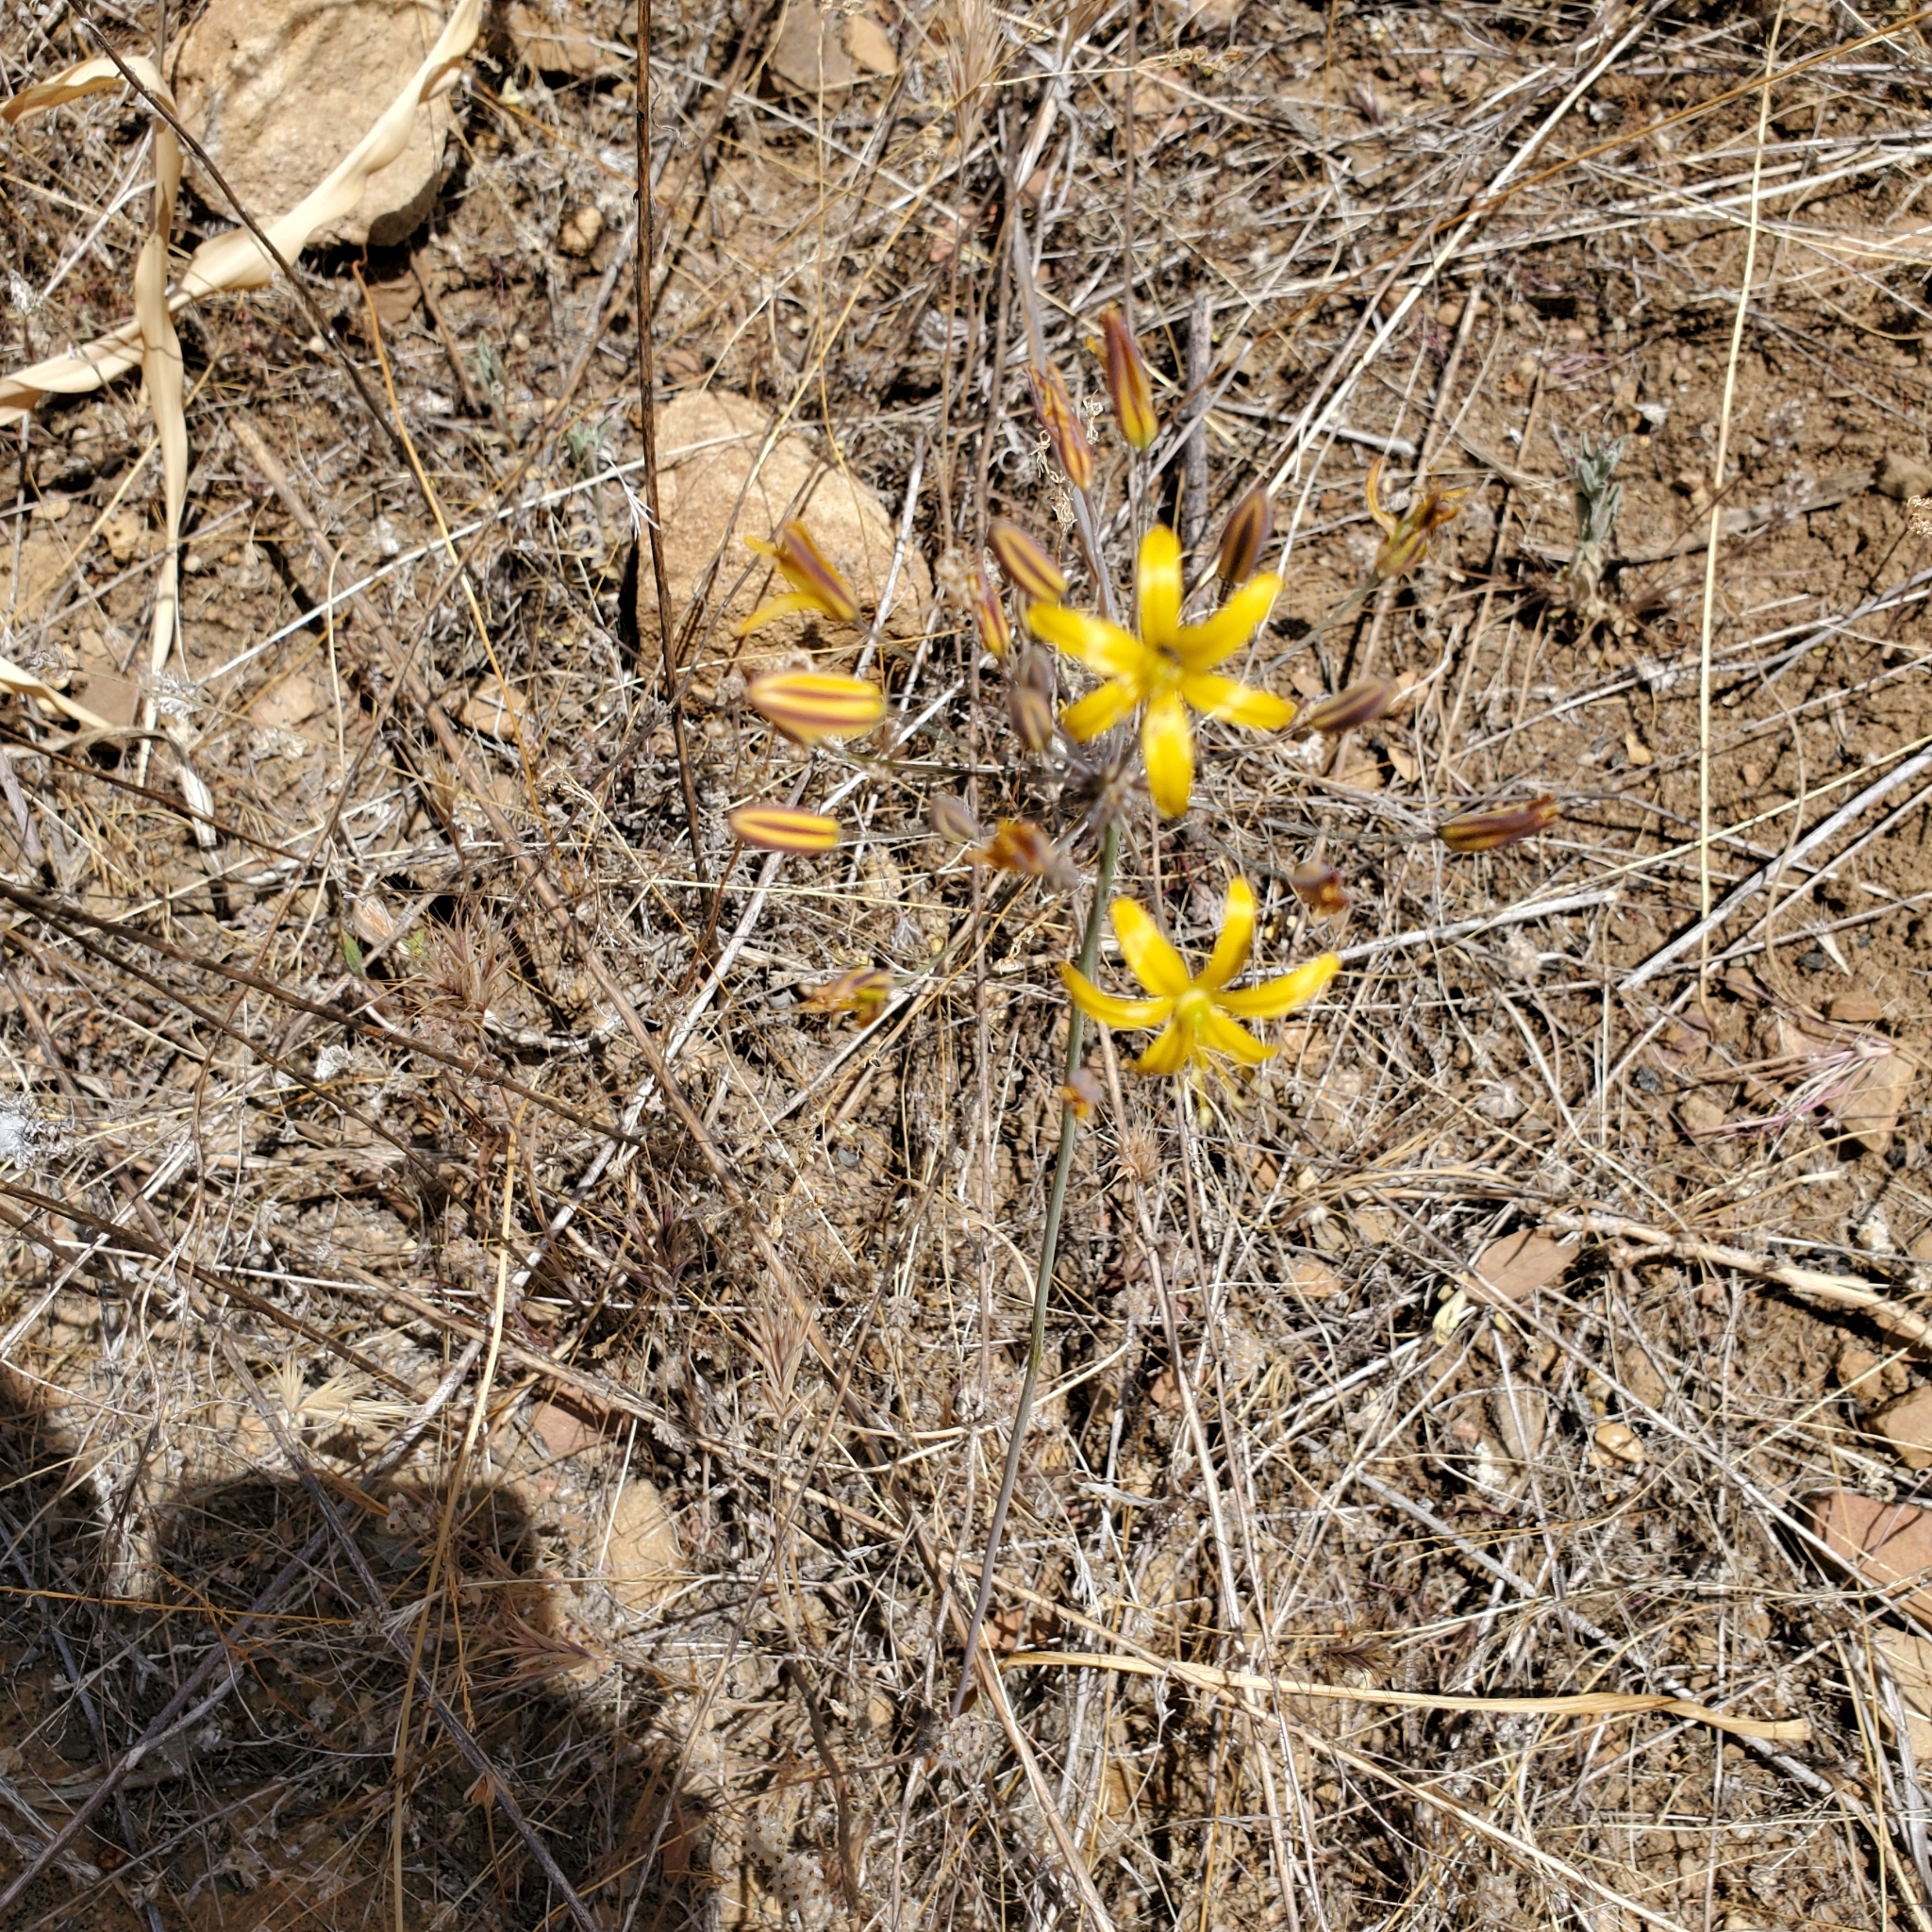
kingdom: Plantae
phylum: Tracheophyta
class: Liliopsida
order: Asparagales
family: Asparagaceae
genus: Bloomeria
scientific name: Bloomeria crocea
